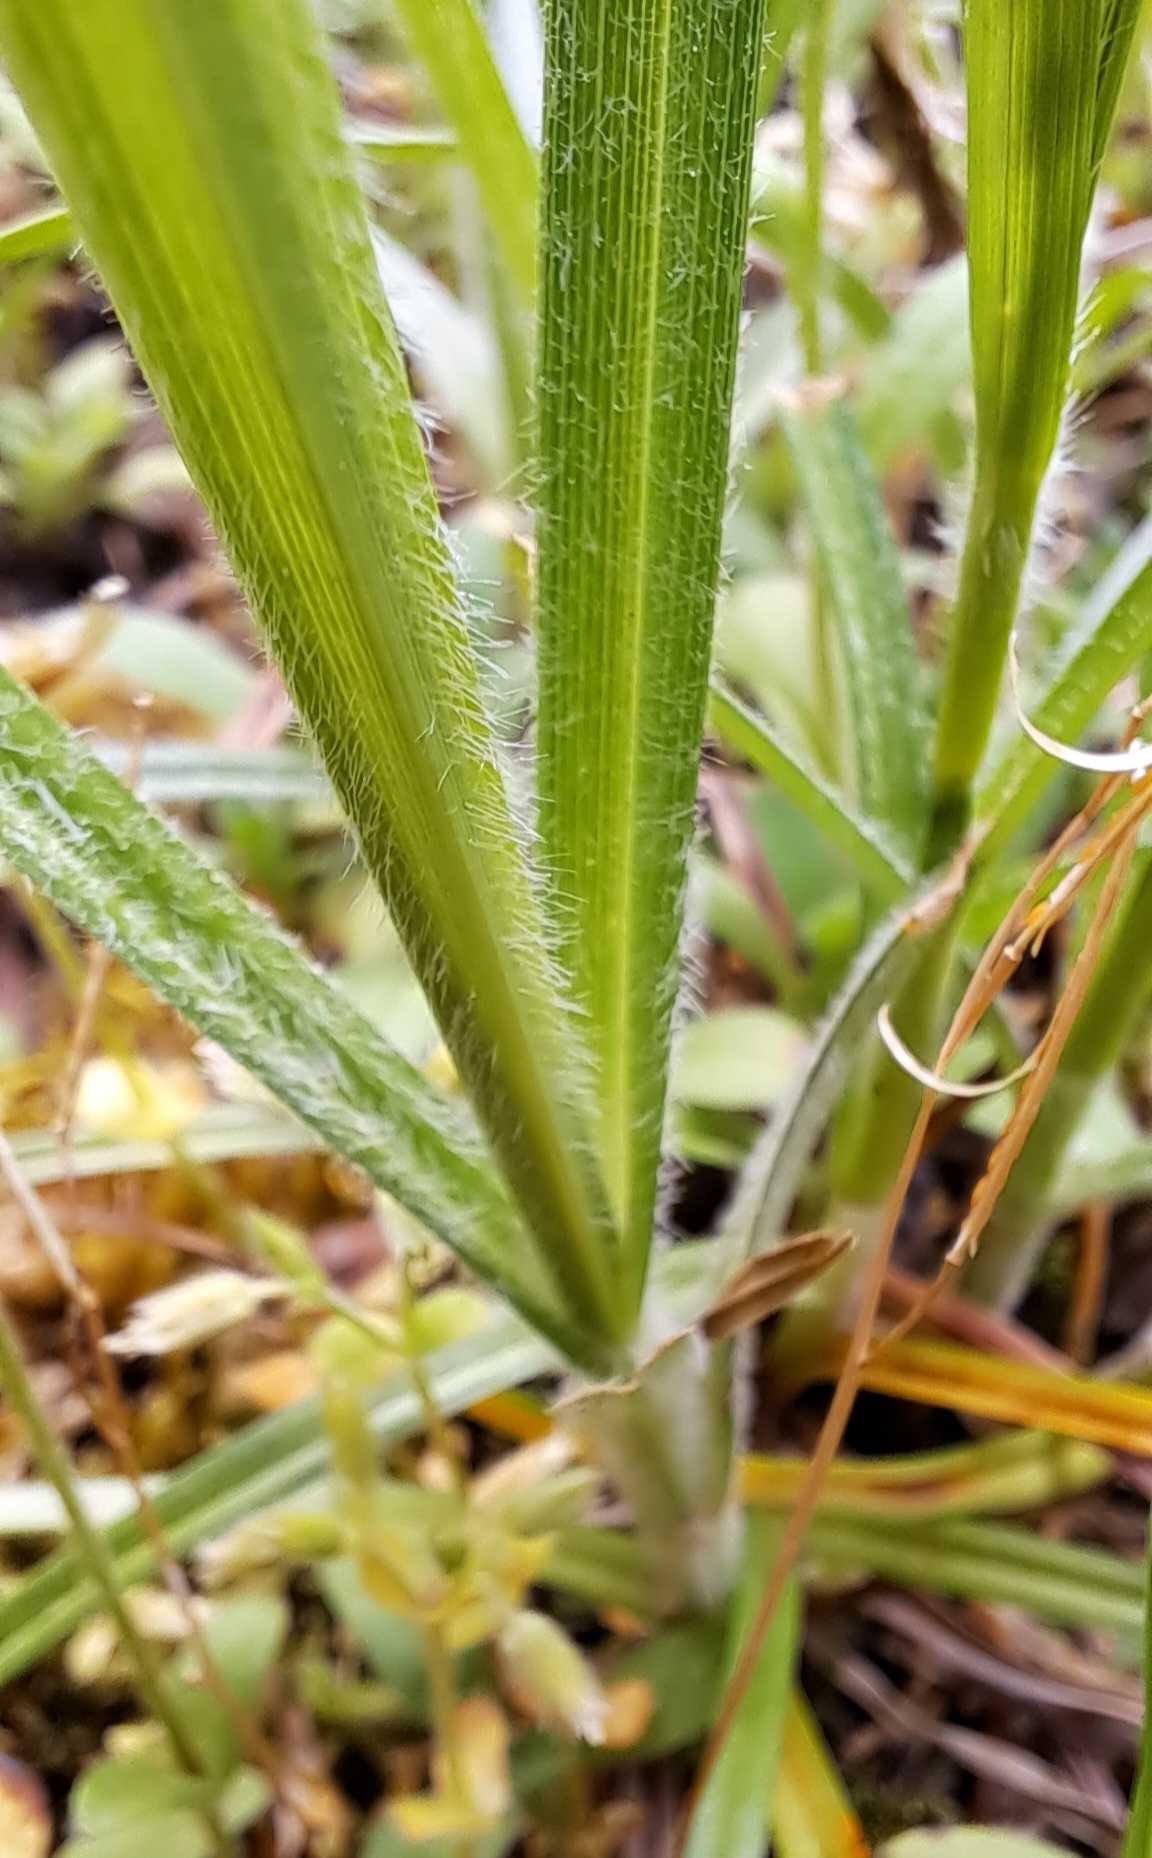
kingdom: Plantae
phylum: Tracheophyta
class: Liliopsida
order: Poales
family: Cyperaceae
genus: Carex
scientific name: Carex hirta
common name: Hairy sedge
